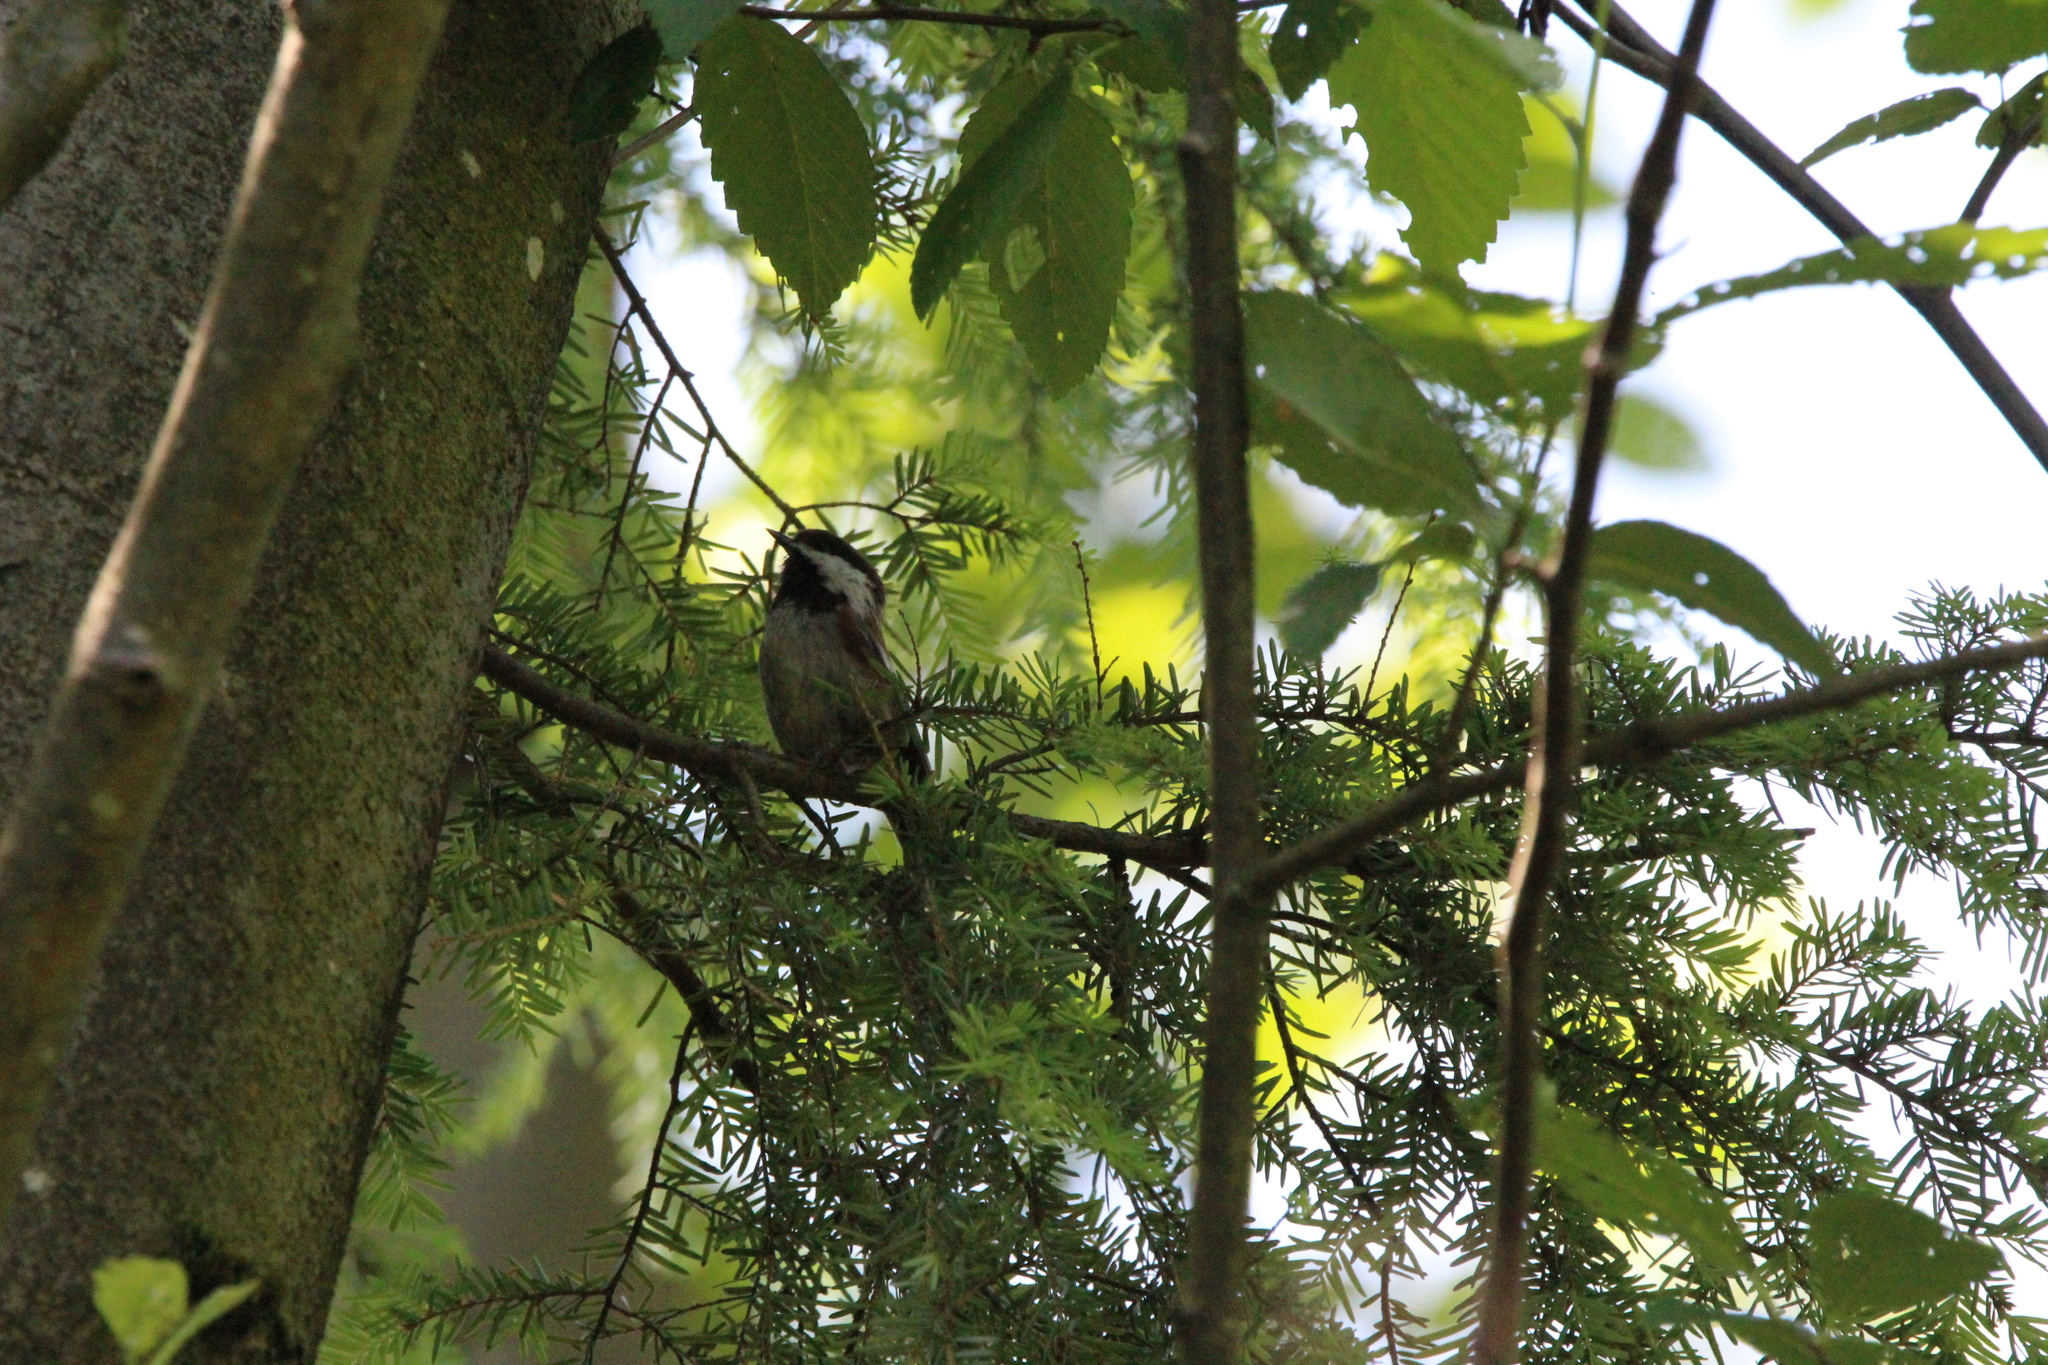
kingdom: Animalia
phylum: Chordata
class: Aves
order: Passeriformes
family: Paridae
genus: Poecile
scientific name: Poecile rufescens
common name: Chestnut-backed chickadee
